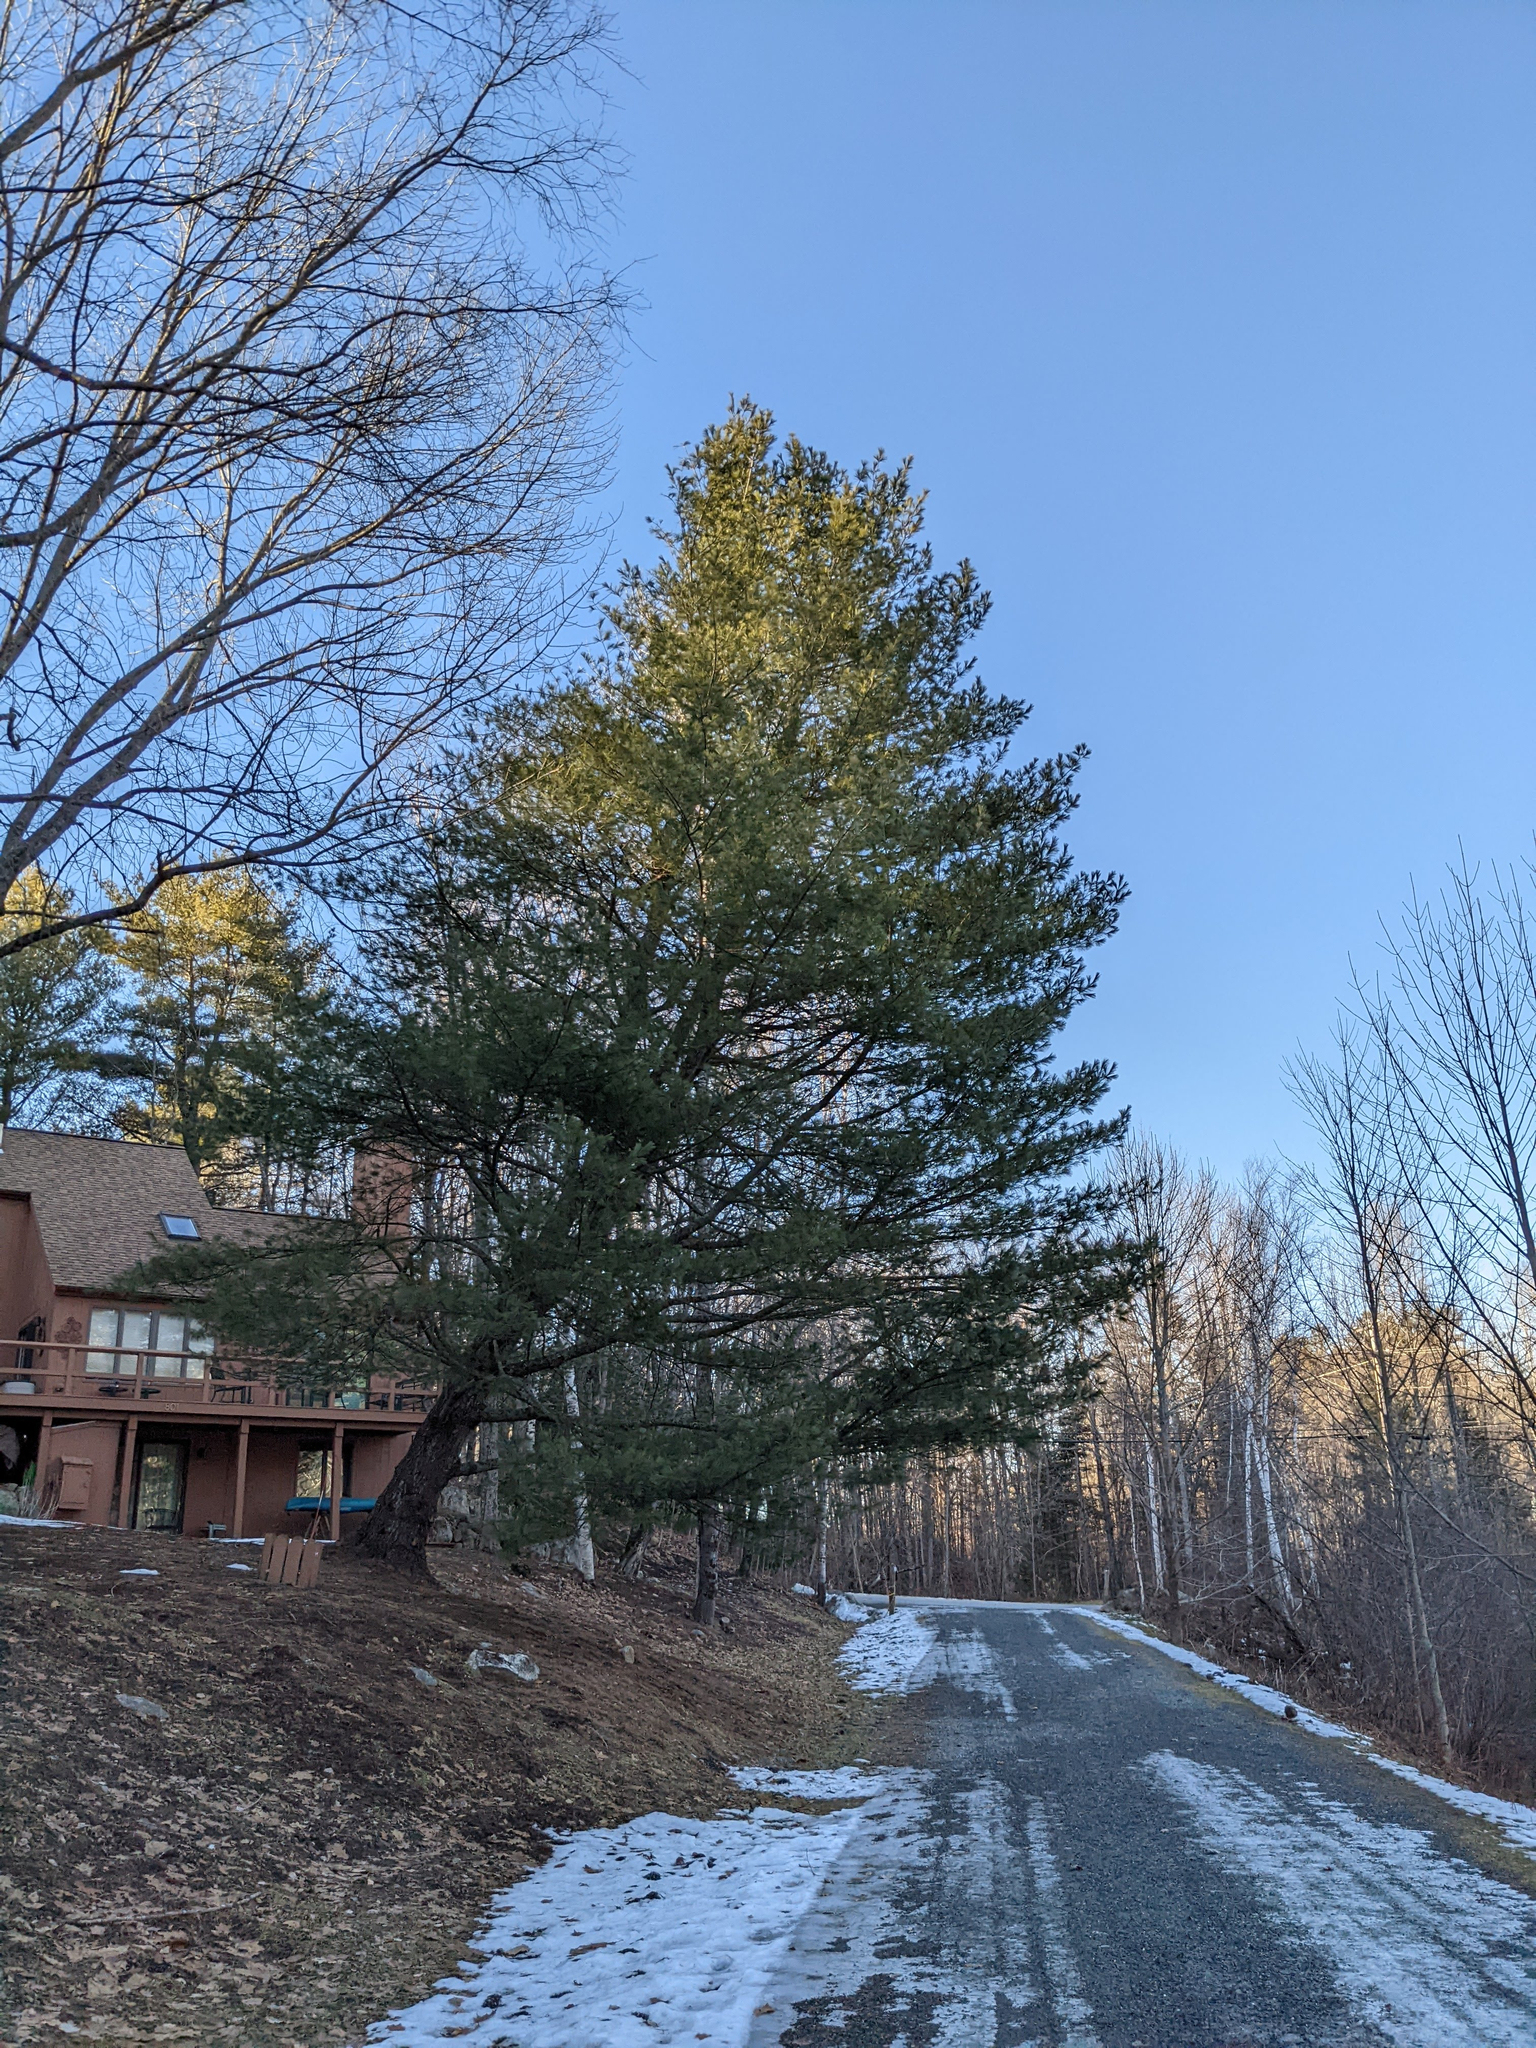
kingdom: Plantae
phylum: Tracheophyta
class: Pinopsida
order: Pinales
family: Pinaceae
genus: Pinus
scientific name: Pinus strobus
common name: Weymouth pine
